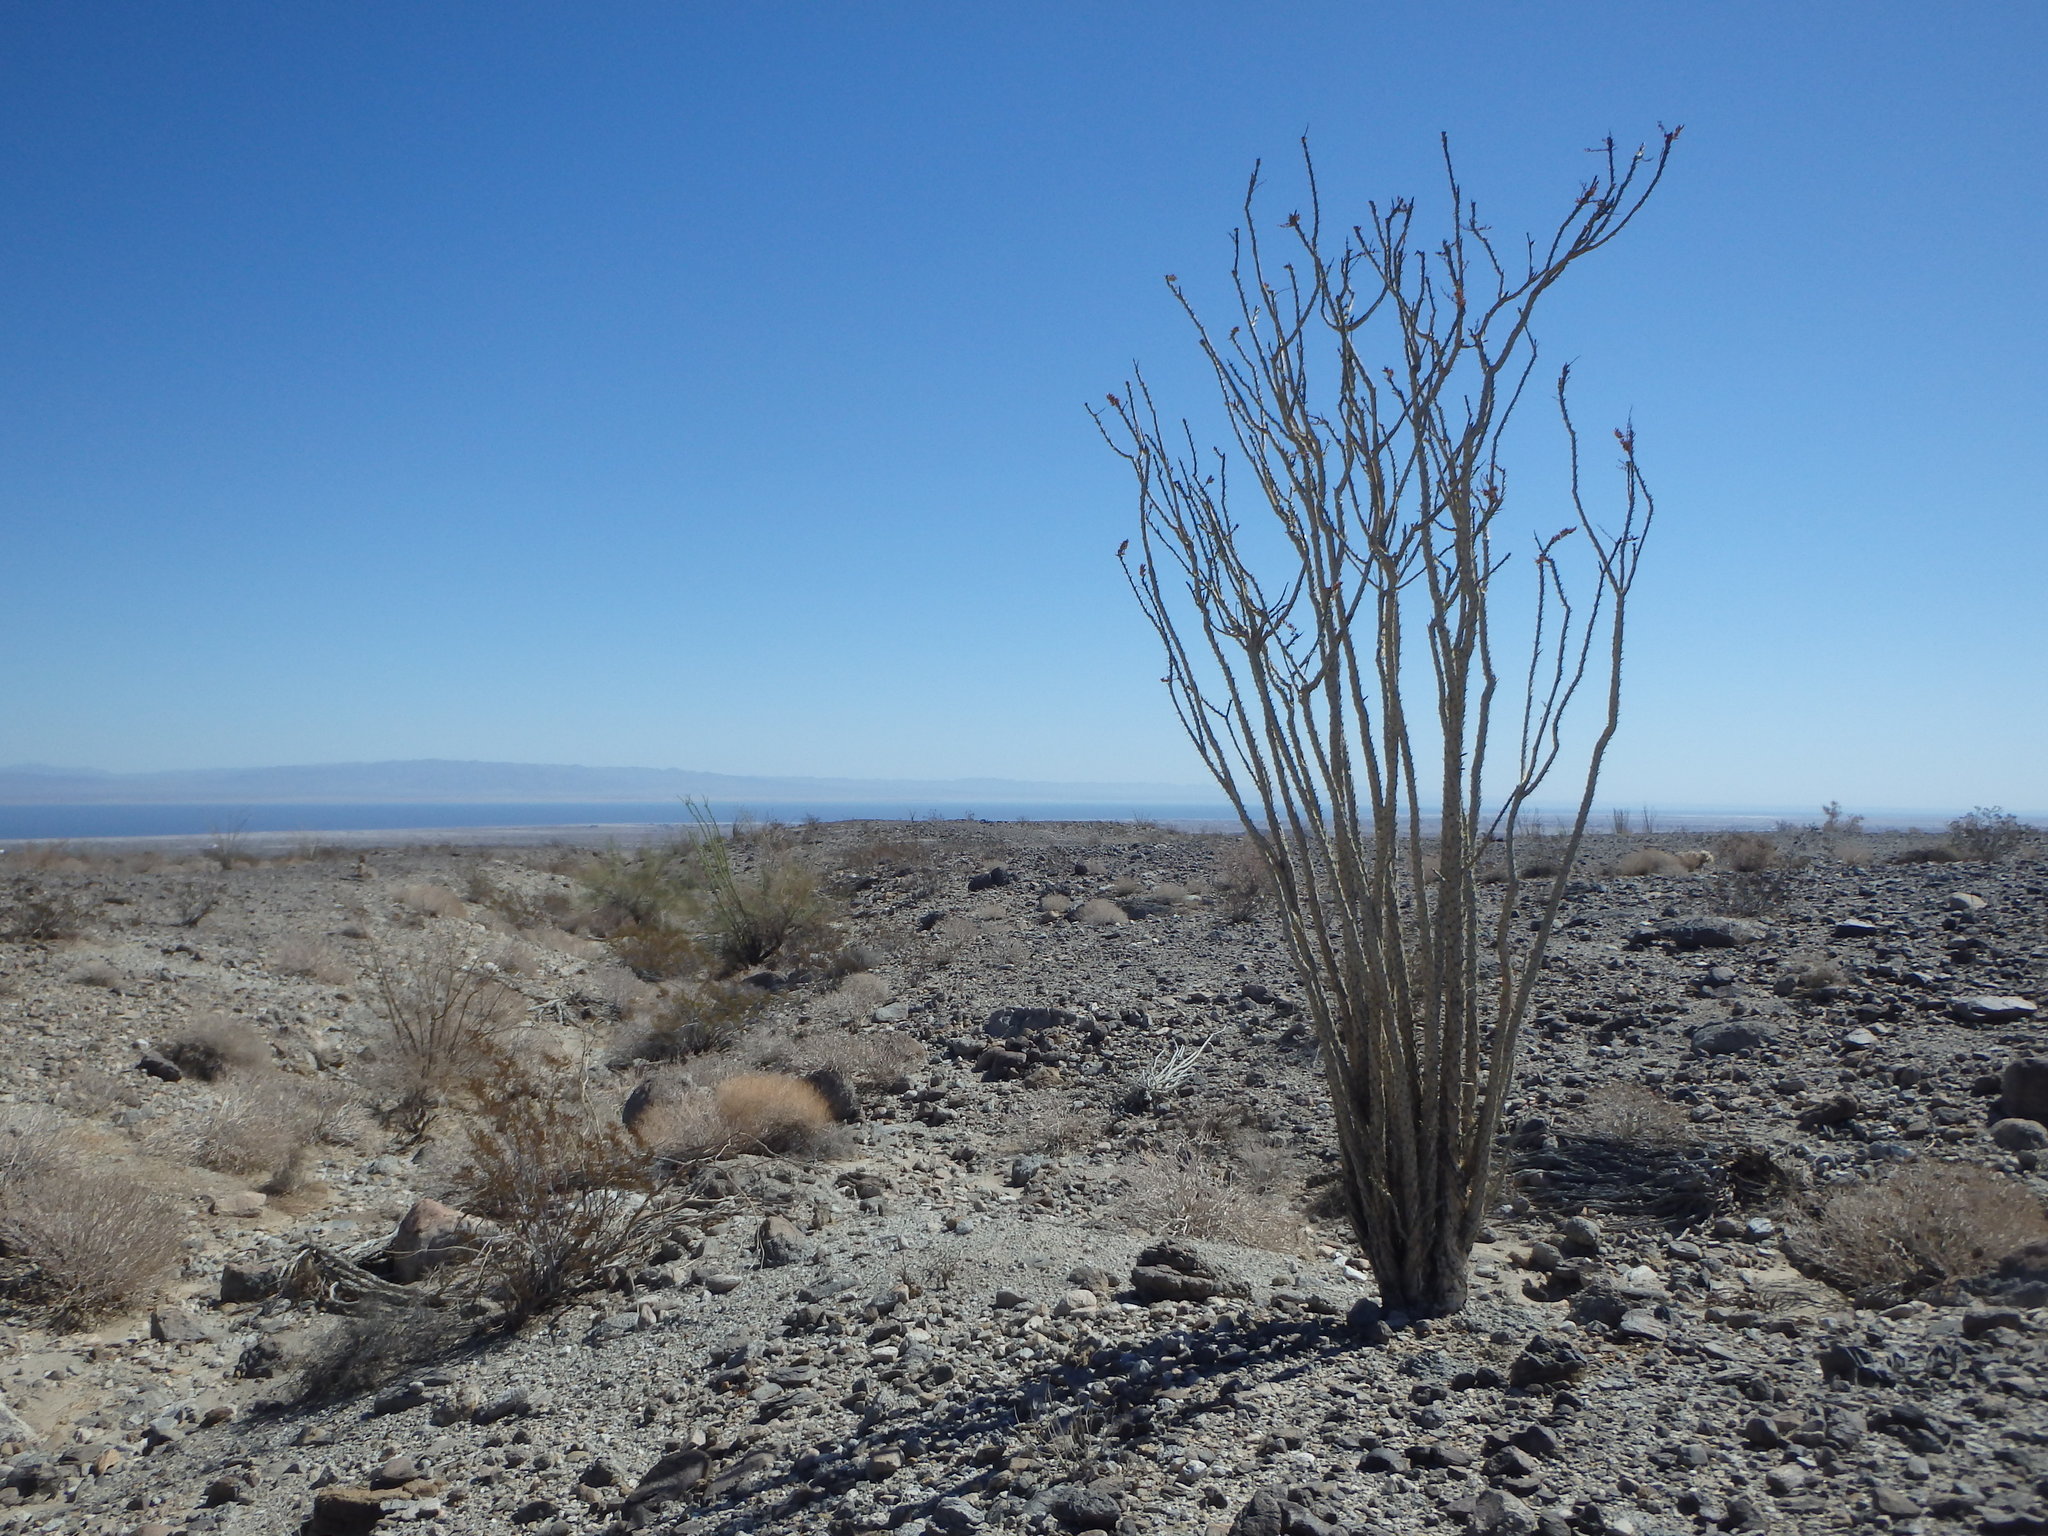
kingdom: Plantae
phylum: Tracheophyta
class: Magnoliopsida
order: Ericales
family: Fouquieriaceae
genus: Fouquieria
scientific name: Fouquieria splendens
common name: Vine-cactus
